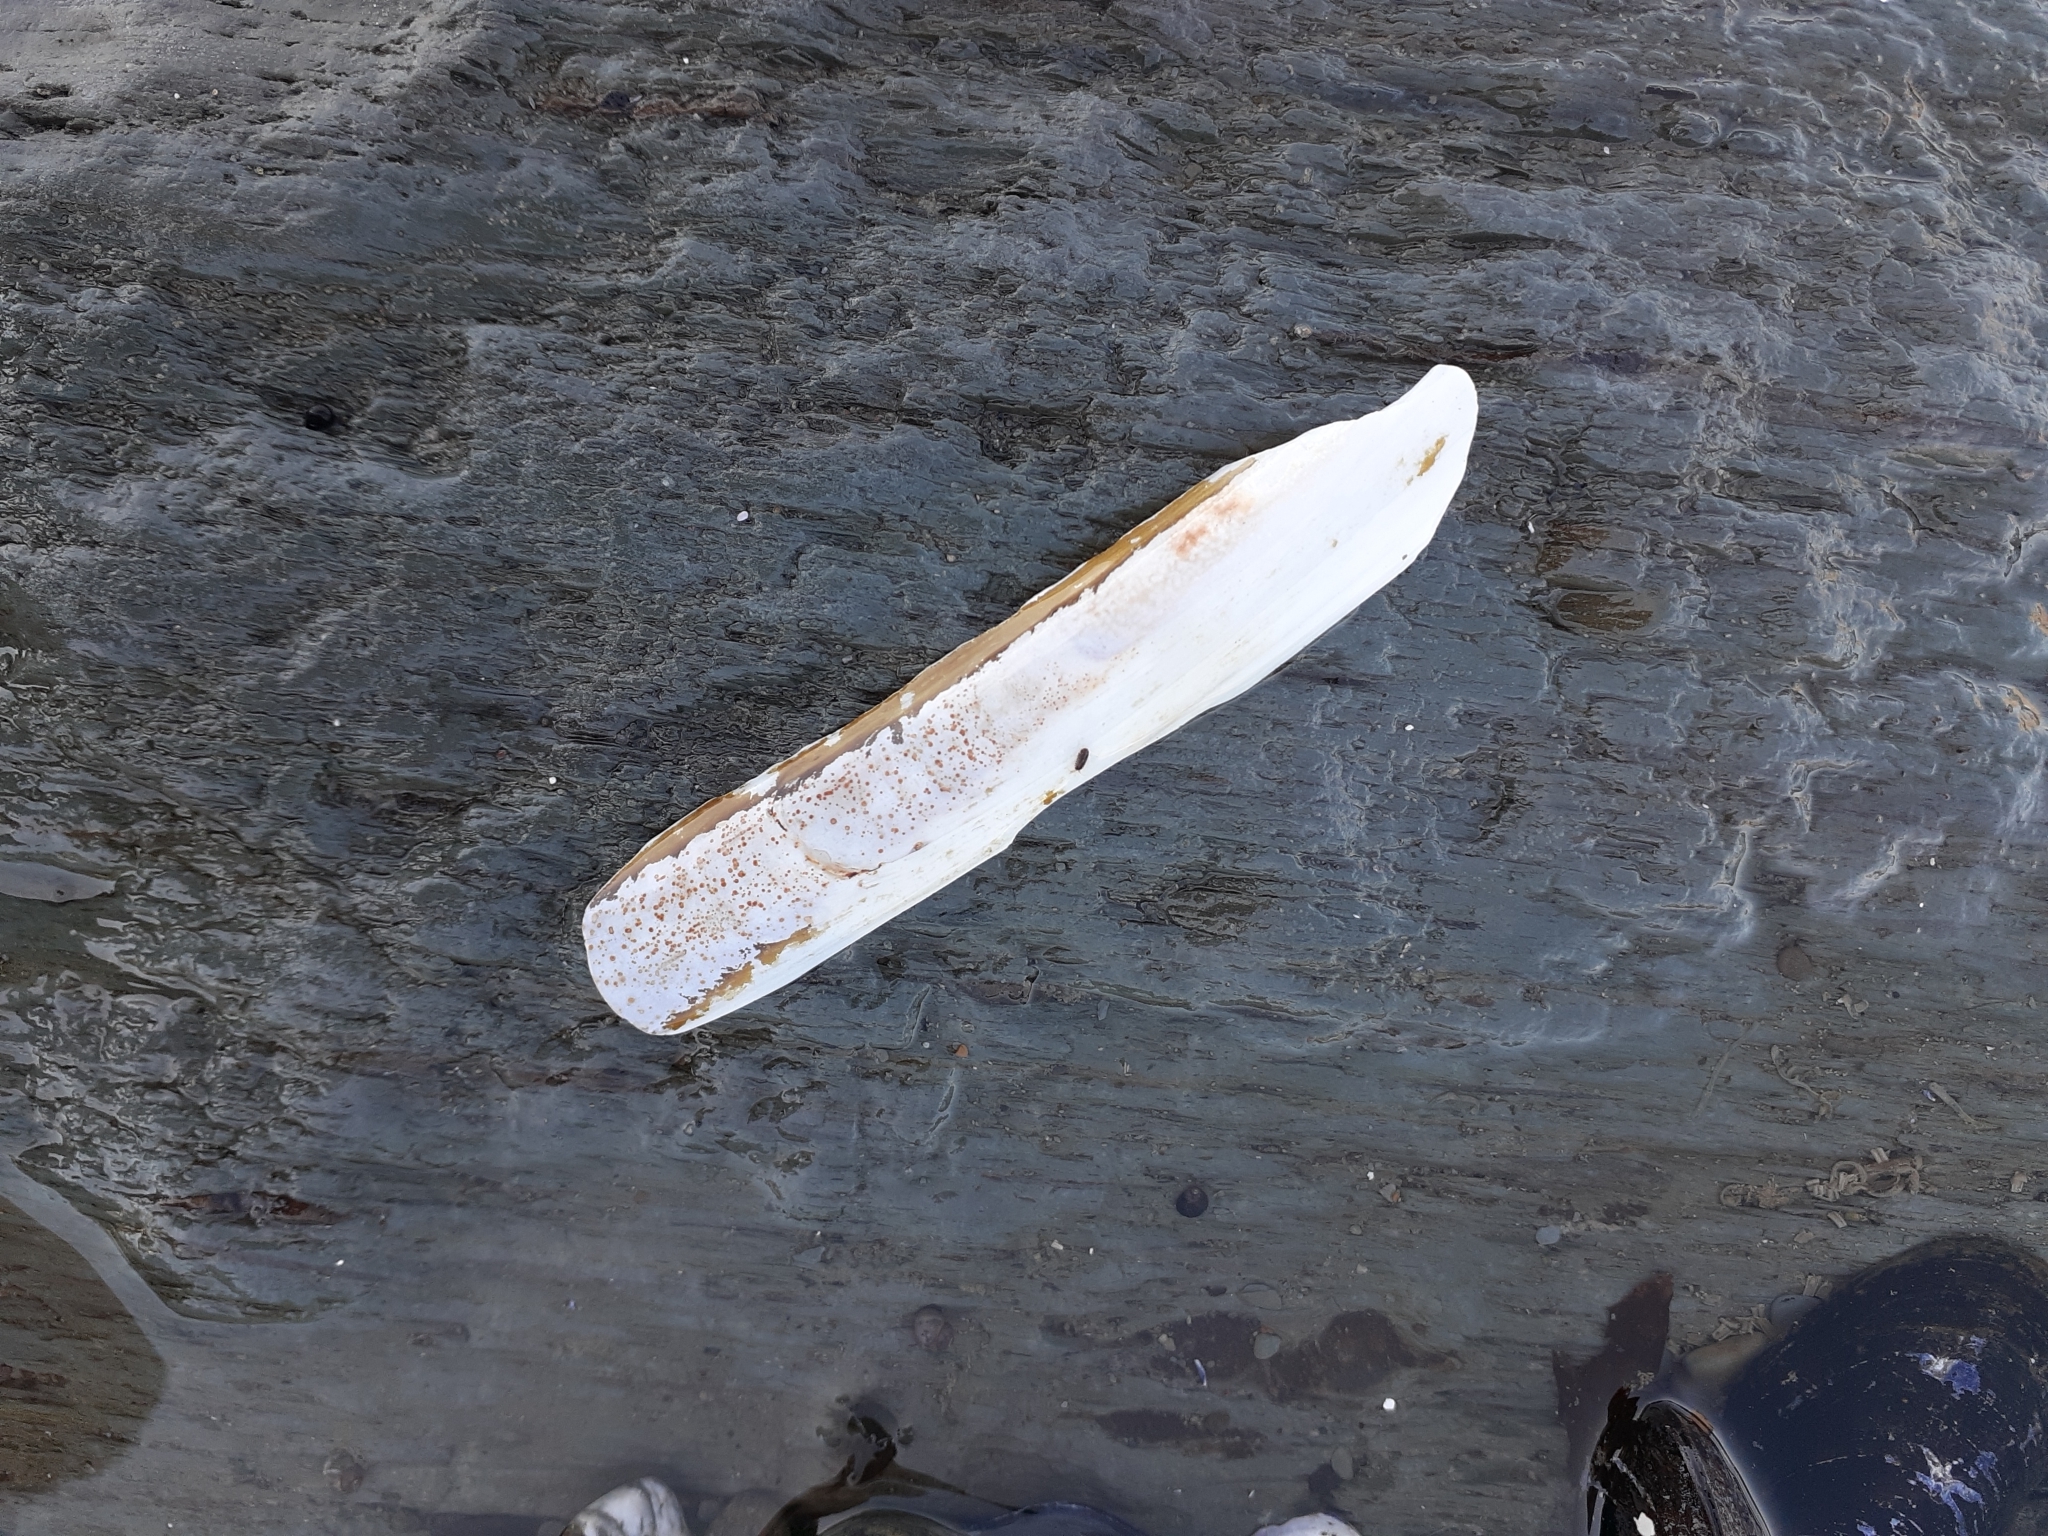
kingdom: Animalia
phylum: Mollusca
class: Bivalvia
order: Adapedonta
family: Pharidae
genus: Ensis
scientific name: Ensis leei
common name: American jack knife clam
